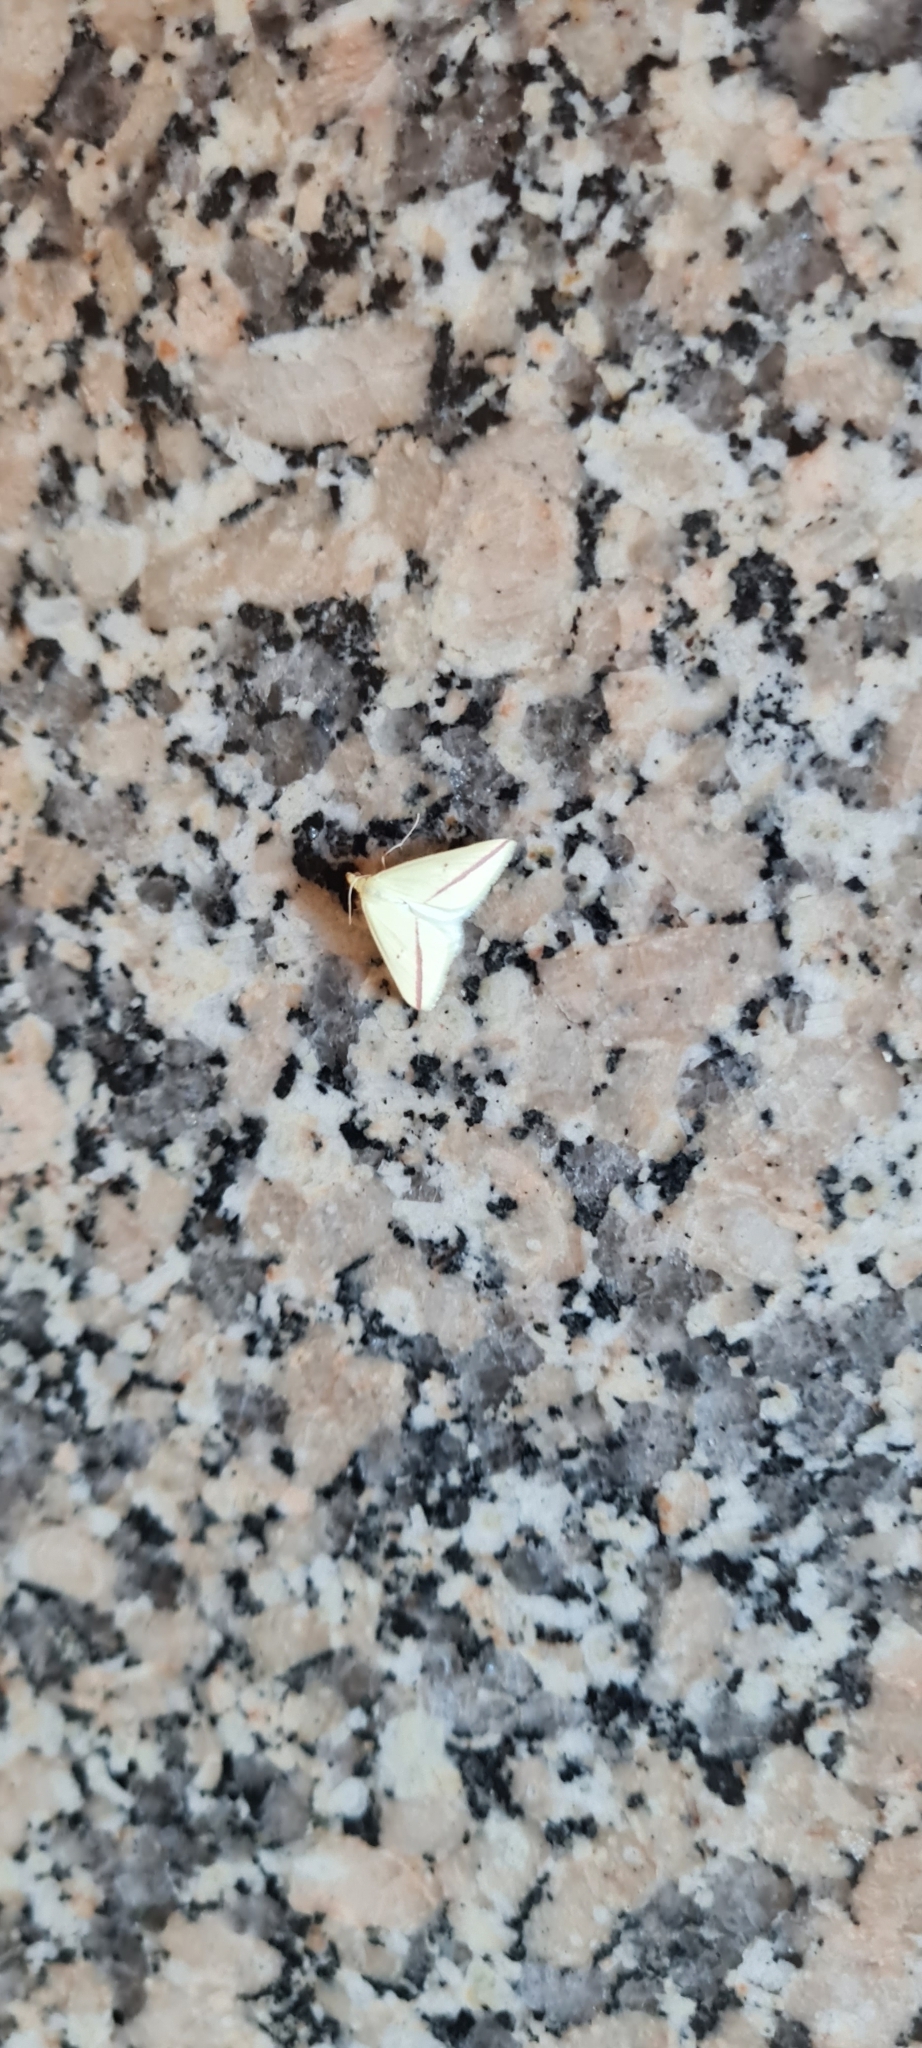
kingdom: Animalia
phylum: Arthropoda
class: Insecta
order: Lepidoptera
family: Geometridae
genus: Rhodometra
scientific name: Rhodometra sacraria
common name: Vestal
